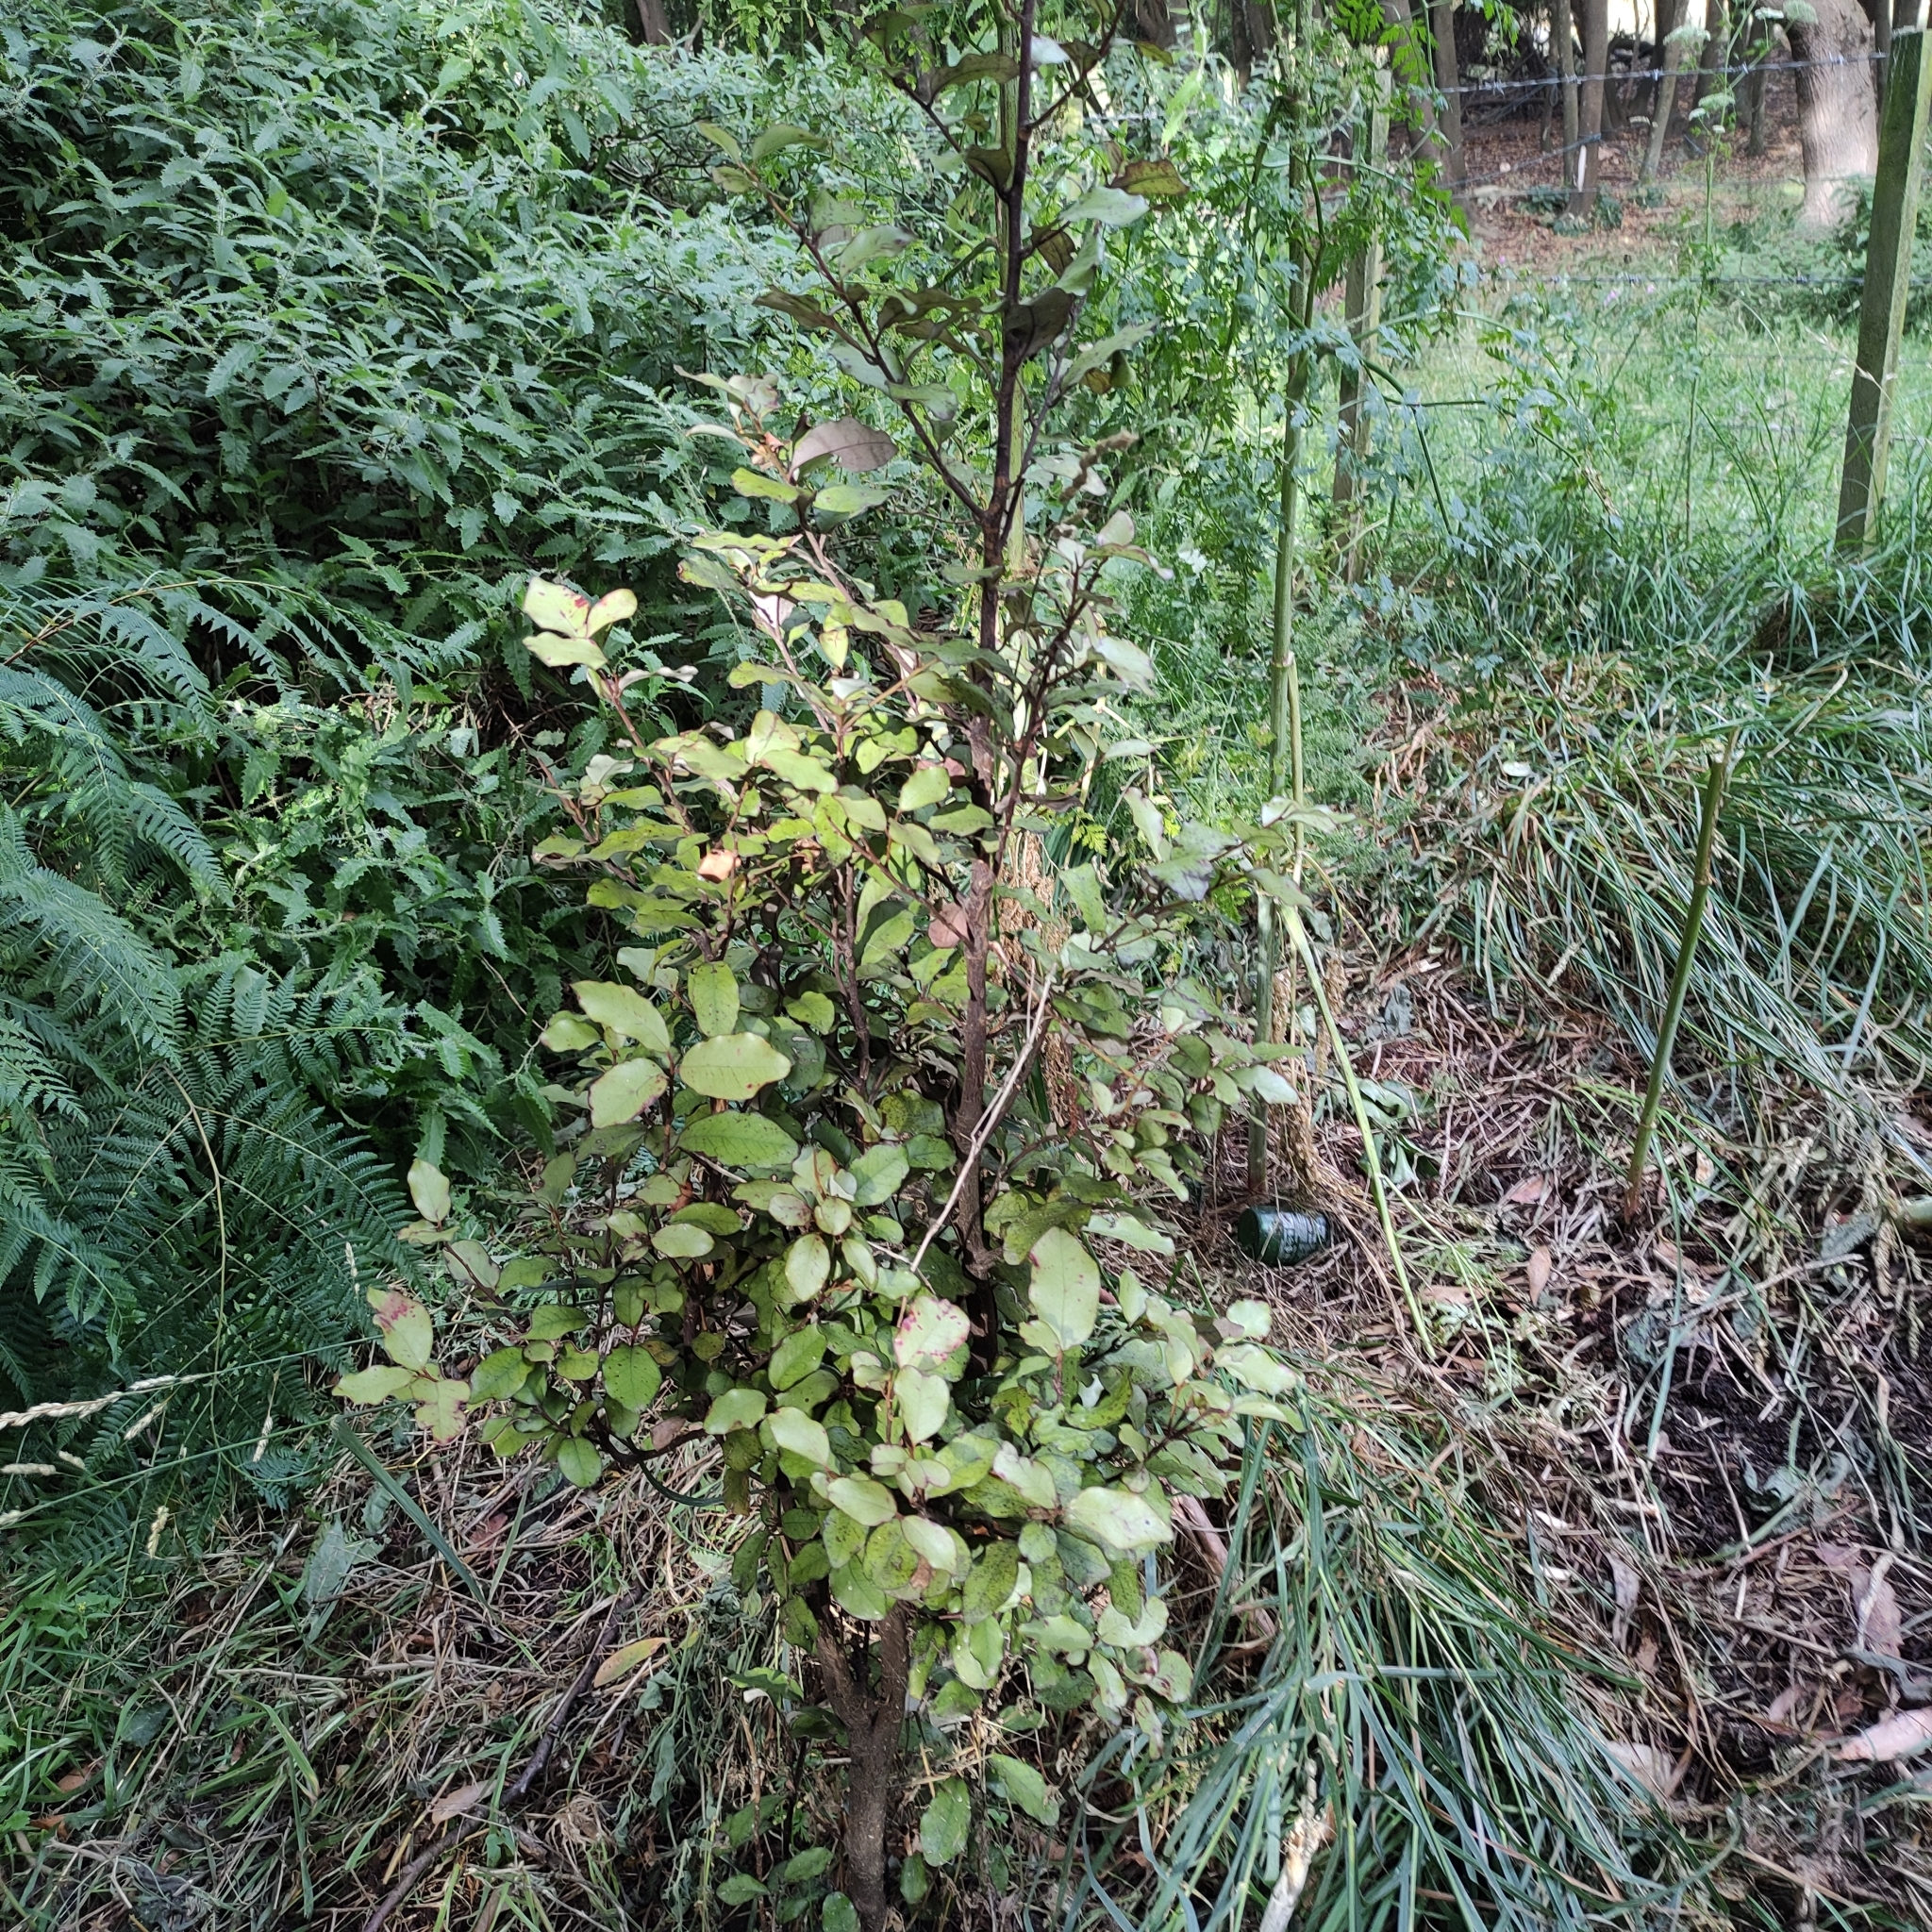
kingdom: Plantae
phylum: Tracheophyta
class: Magnoliopsida
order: Canellales
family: Winteraceae
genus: Pseudowintera
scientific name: Pseudowintera colorata
